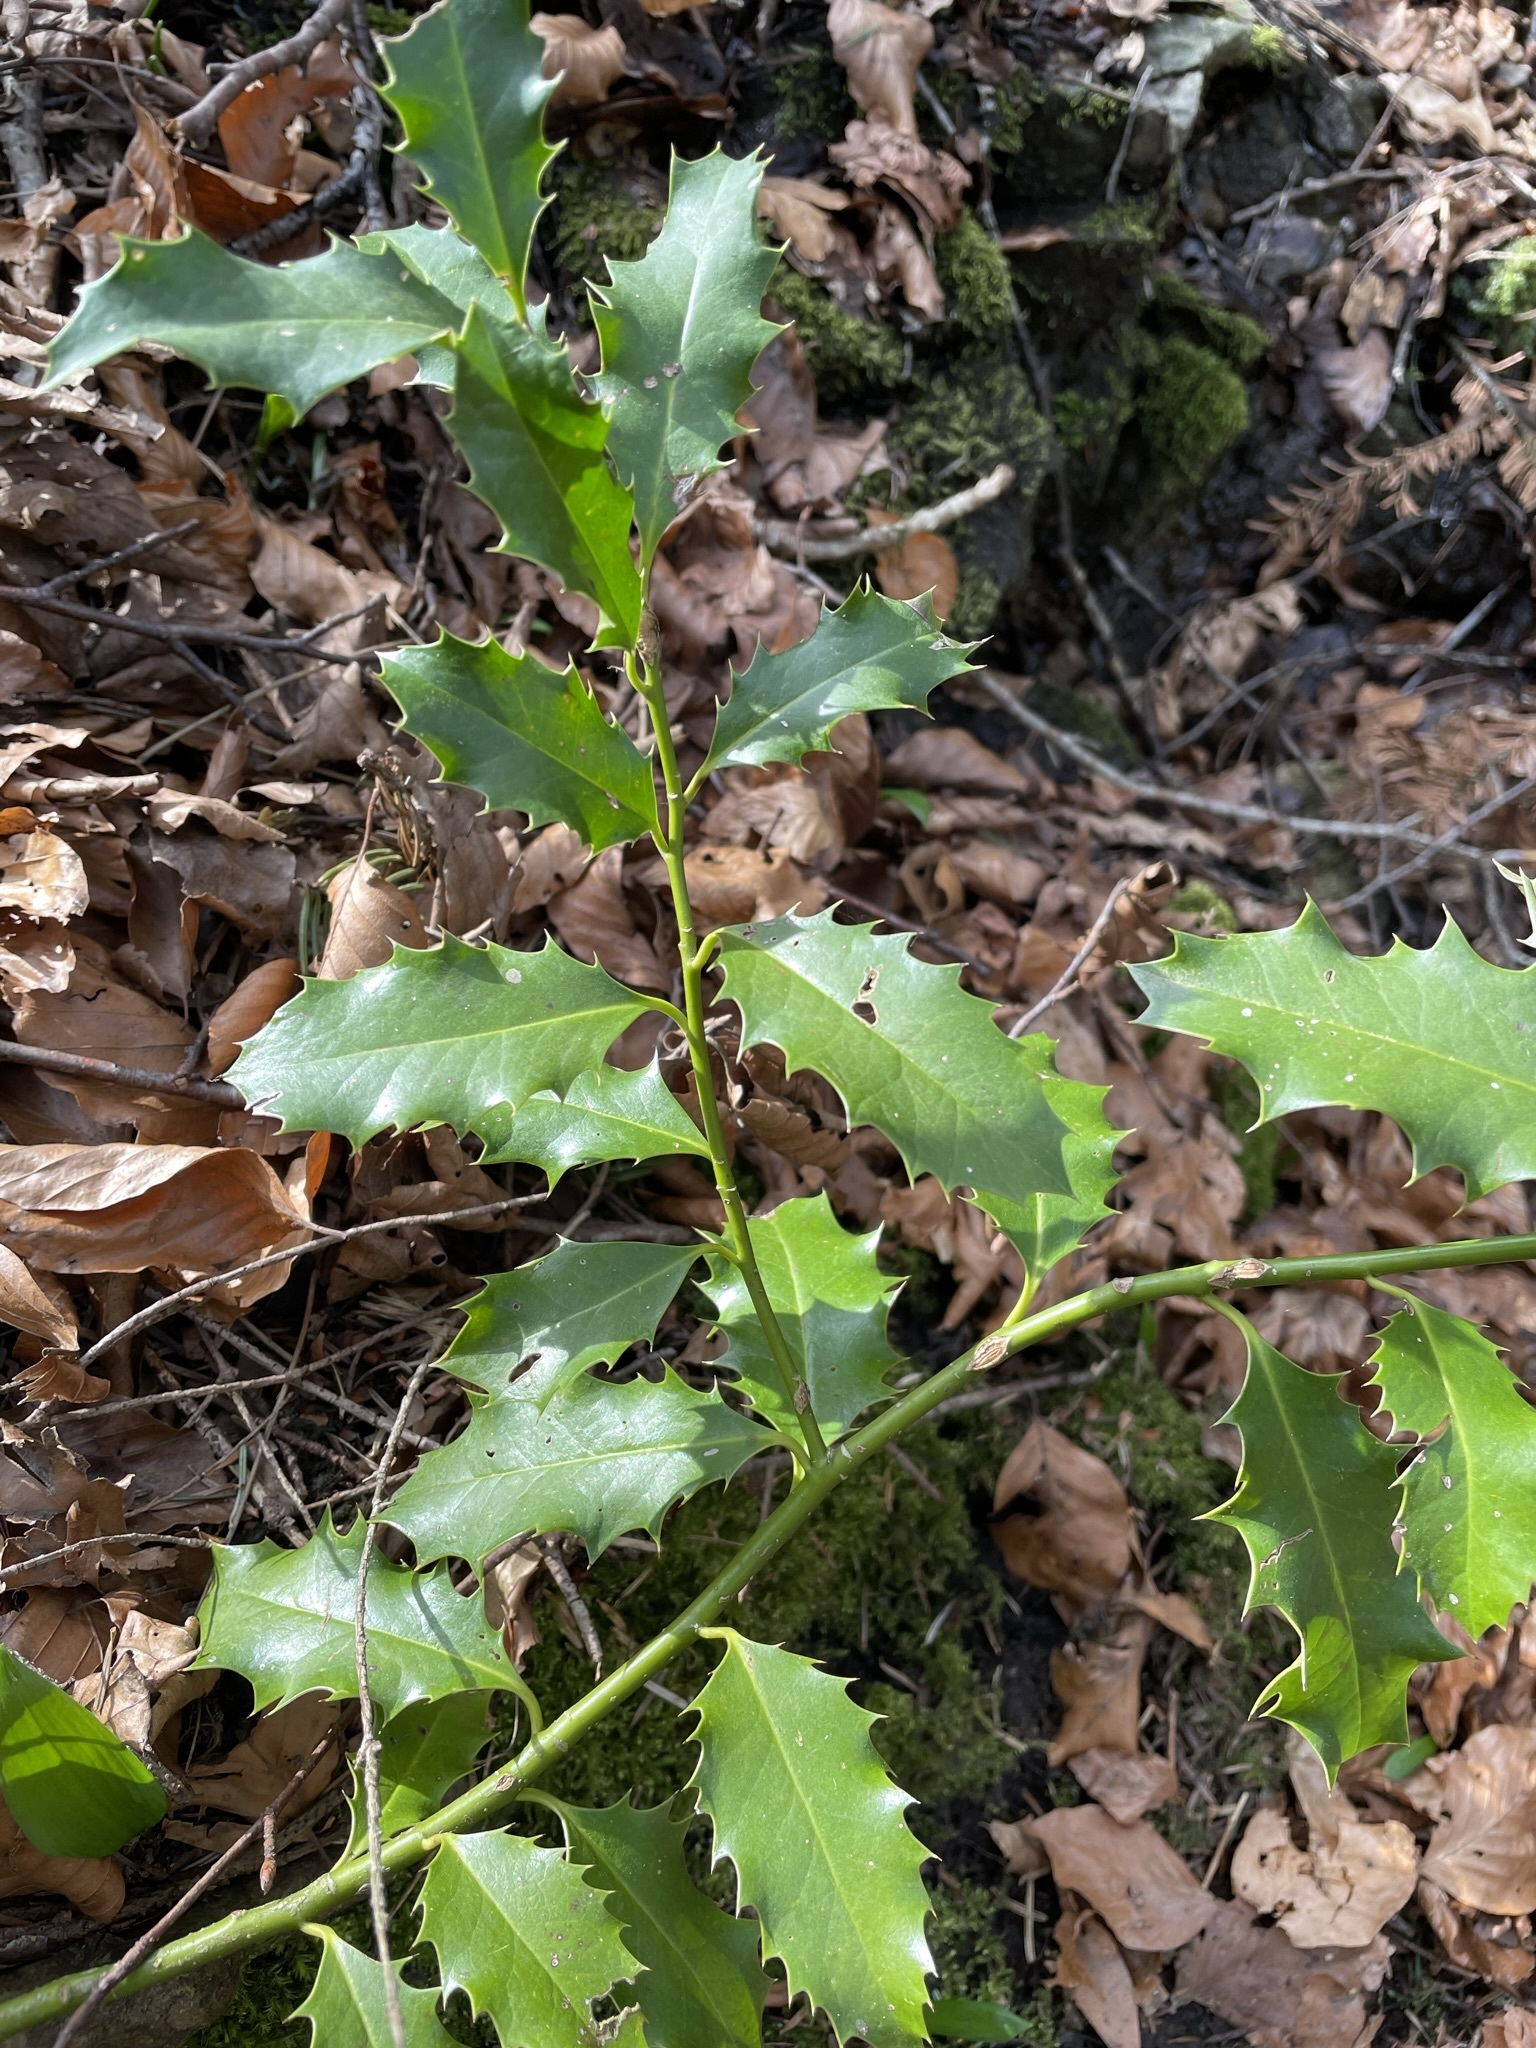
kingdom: Plantae
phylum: Tracheophyta
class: Magnoliopsida
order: Aquifoliales
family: Aquifoliaceae
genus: Ilex
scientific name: Ilex aquifolium
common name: English holly
